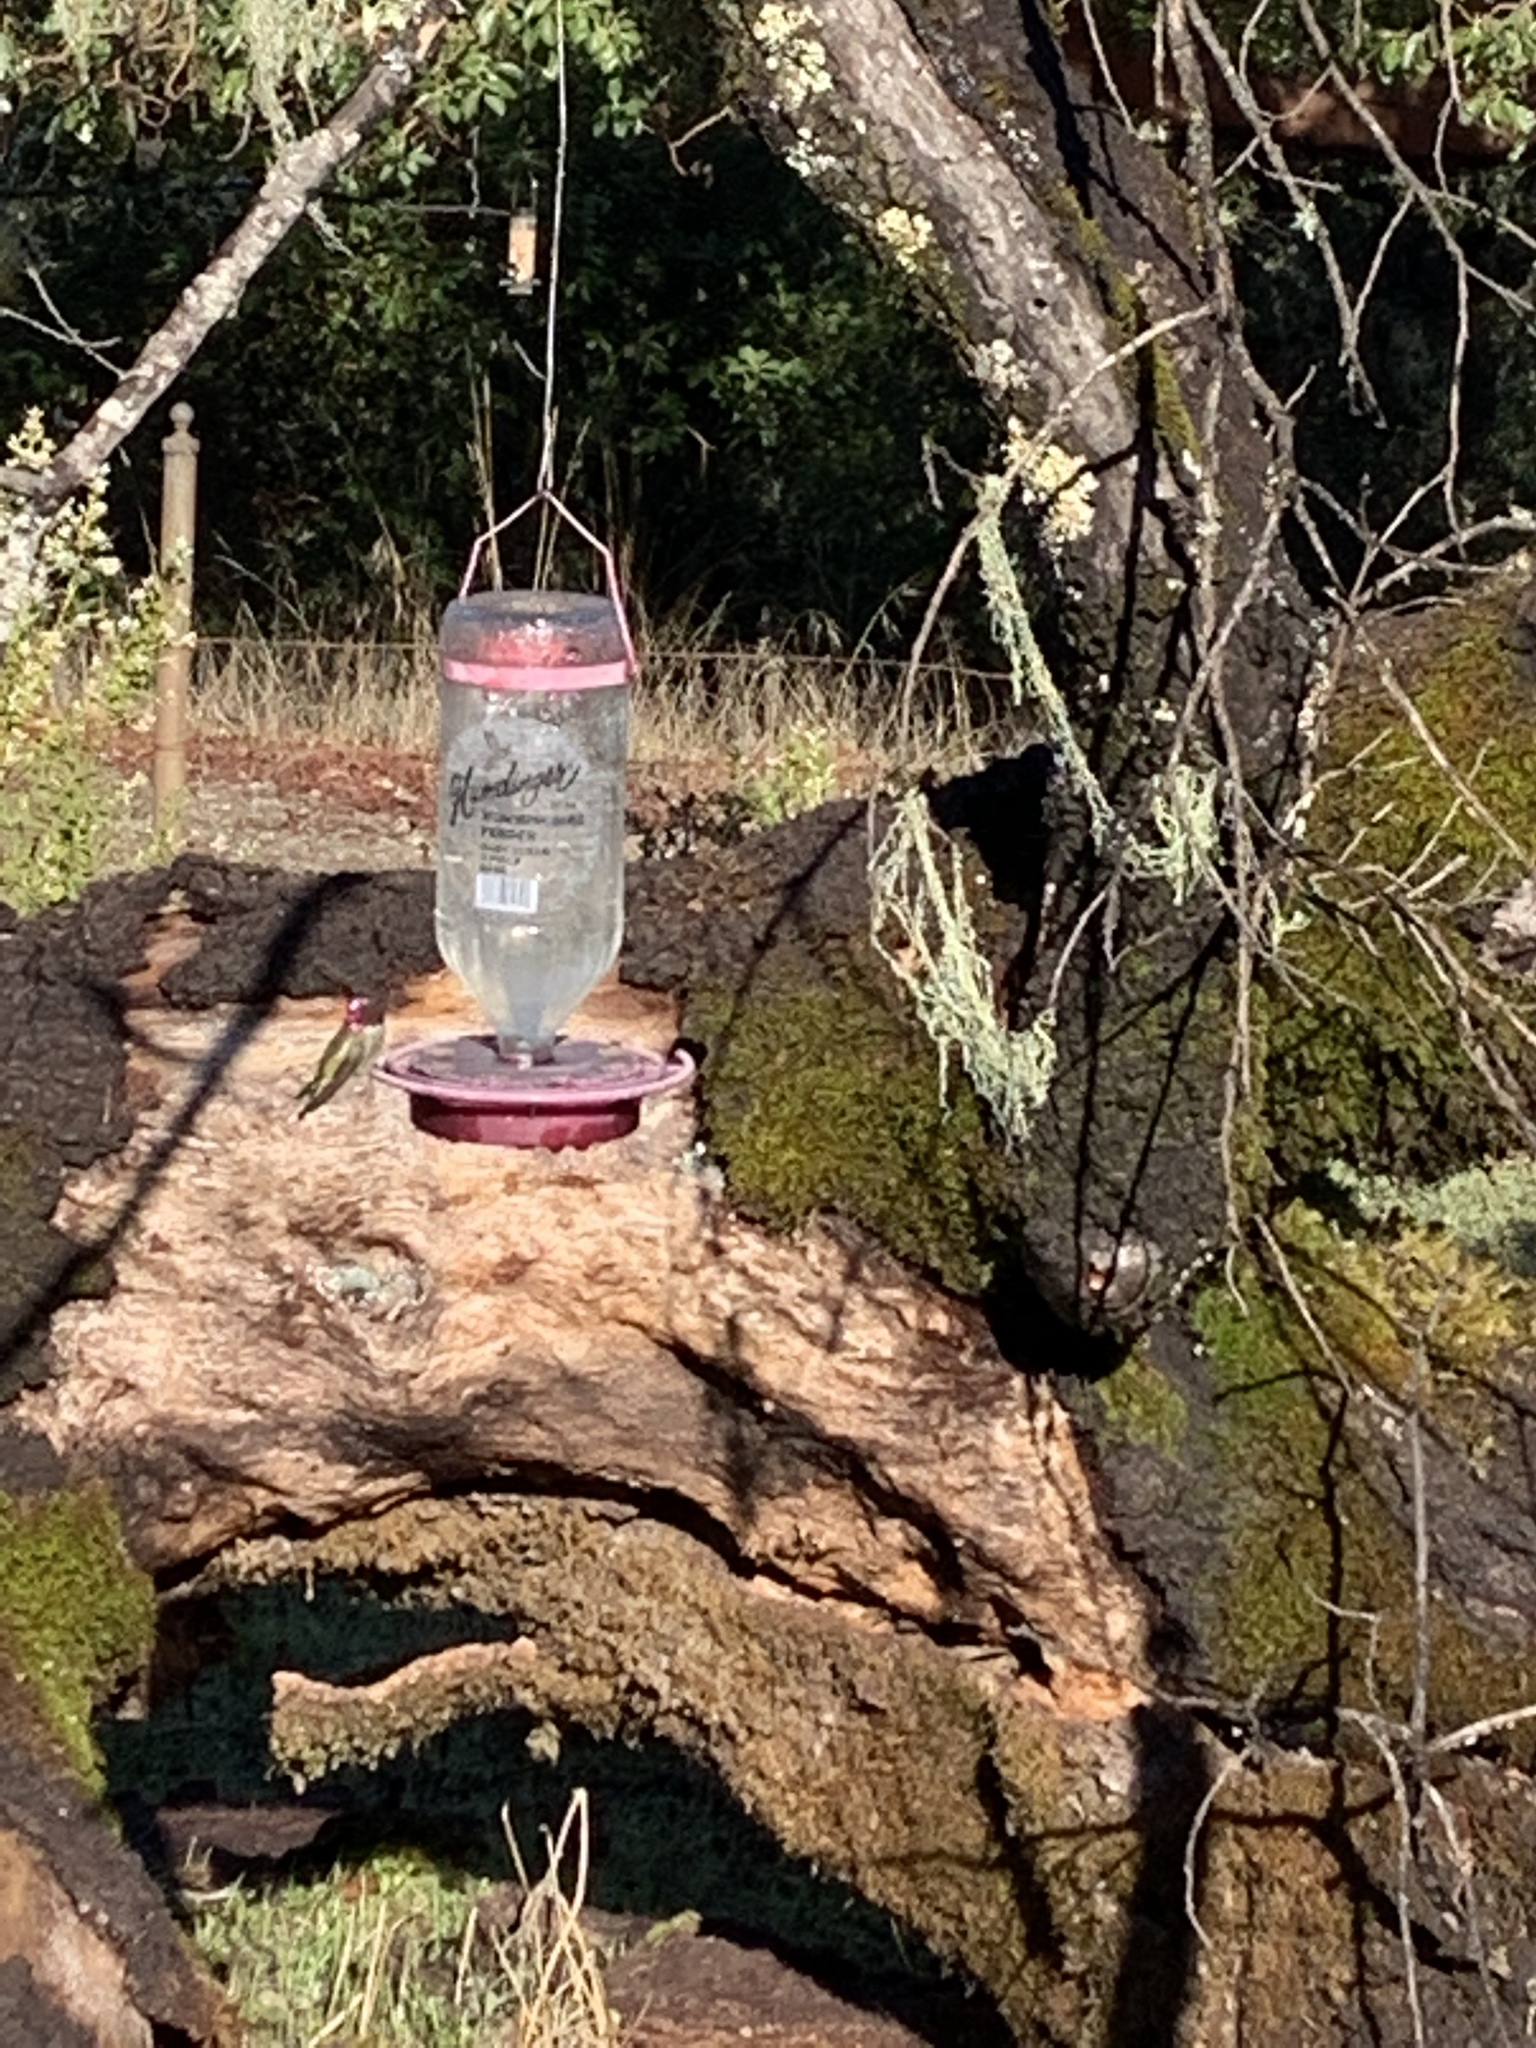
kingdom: Animalia
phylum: Chordata
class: Aves
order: Apodiformes
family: Trochilidae
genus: Calypte
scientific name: Calypte anna
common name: Anna's hummingbird
